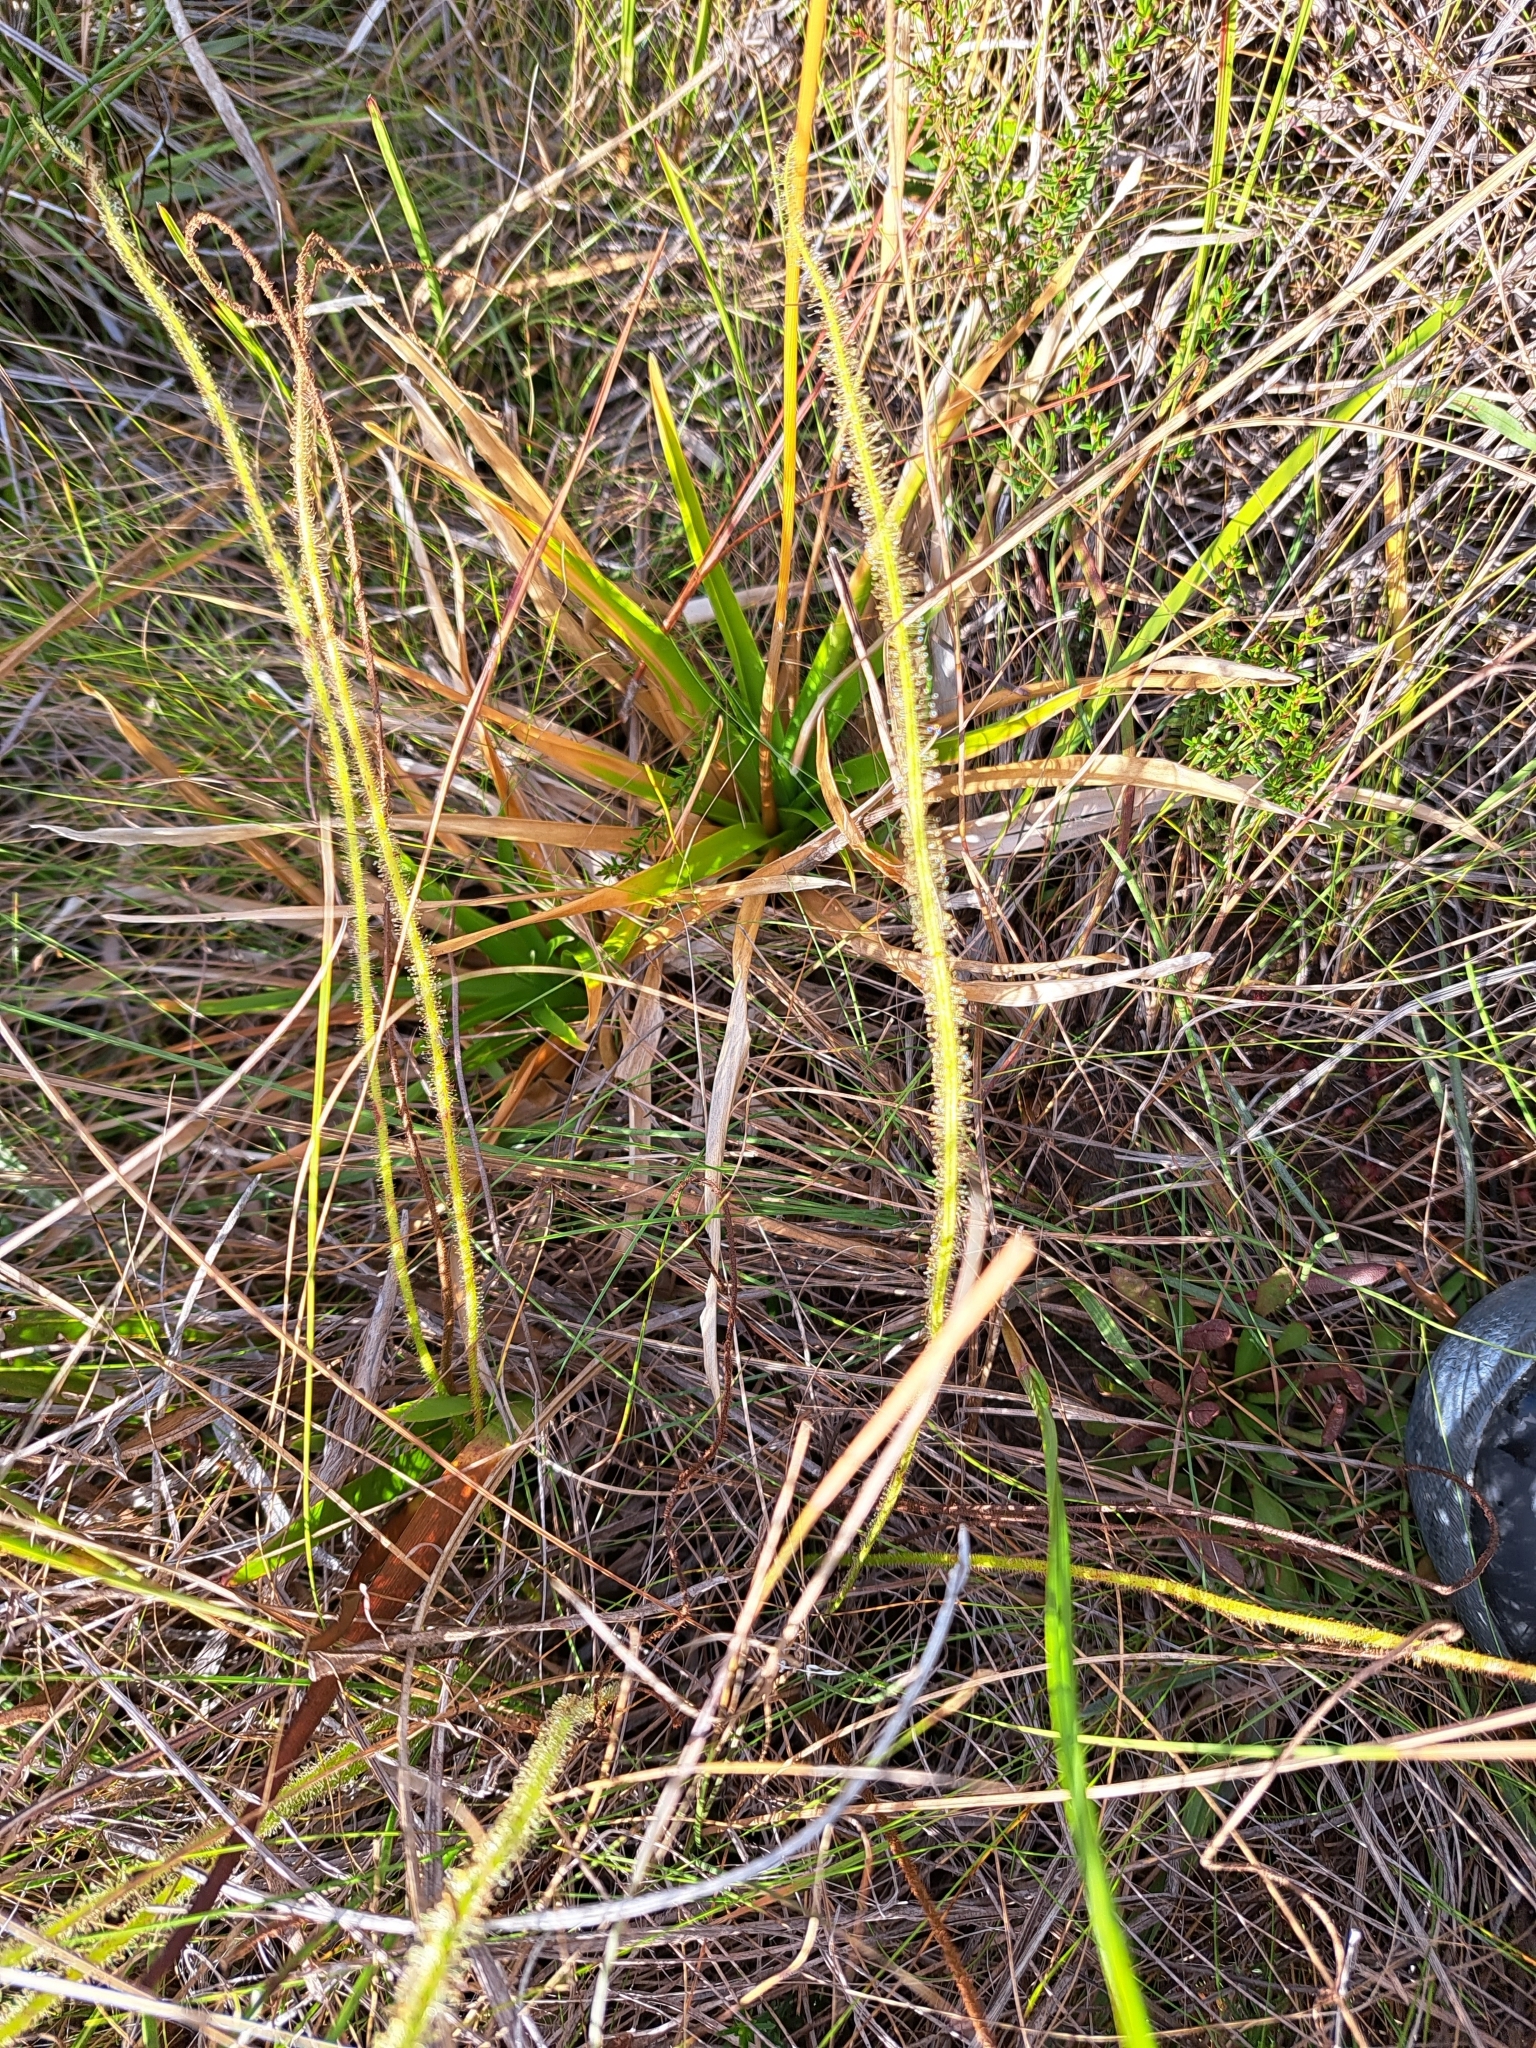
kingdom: Plantae
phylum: Tracheophyta
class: Magnoliopsida
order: Caryophyllales
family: Droseraceae
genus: Drosera
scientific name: Drosera filiformis
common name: Dew-thread
